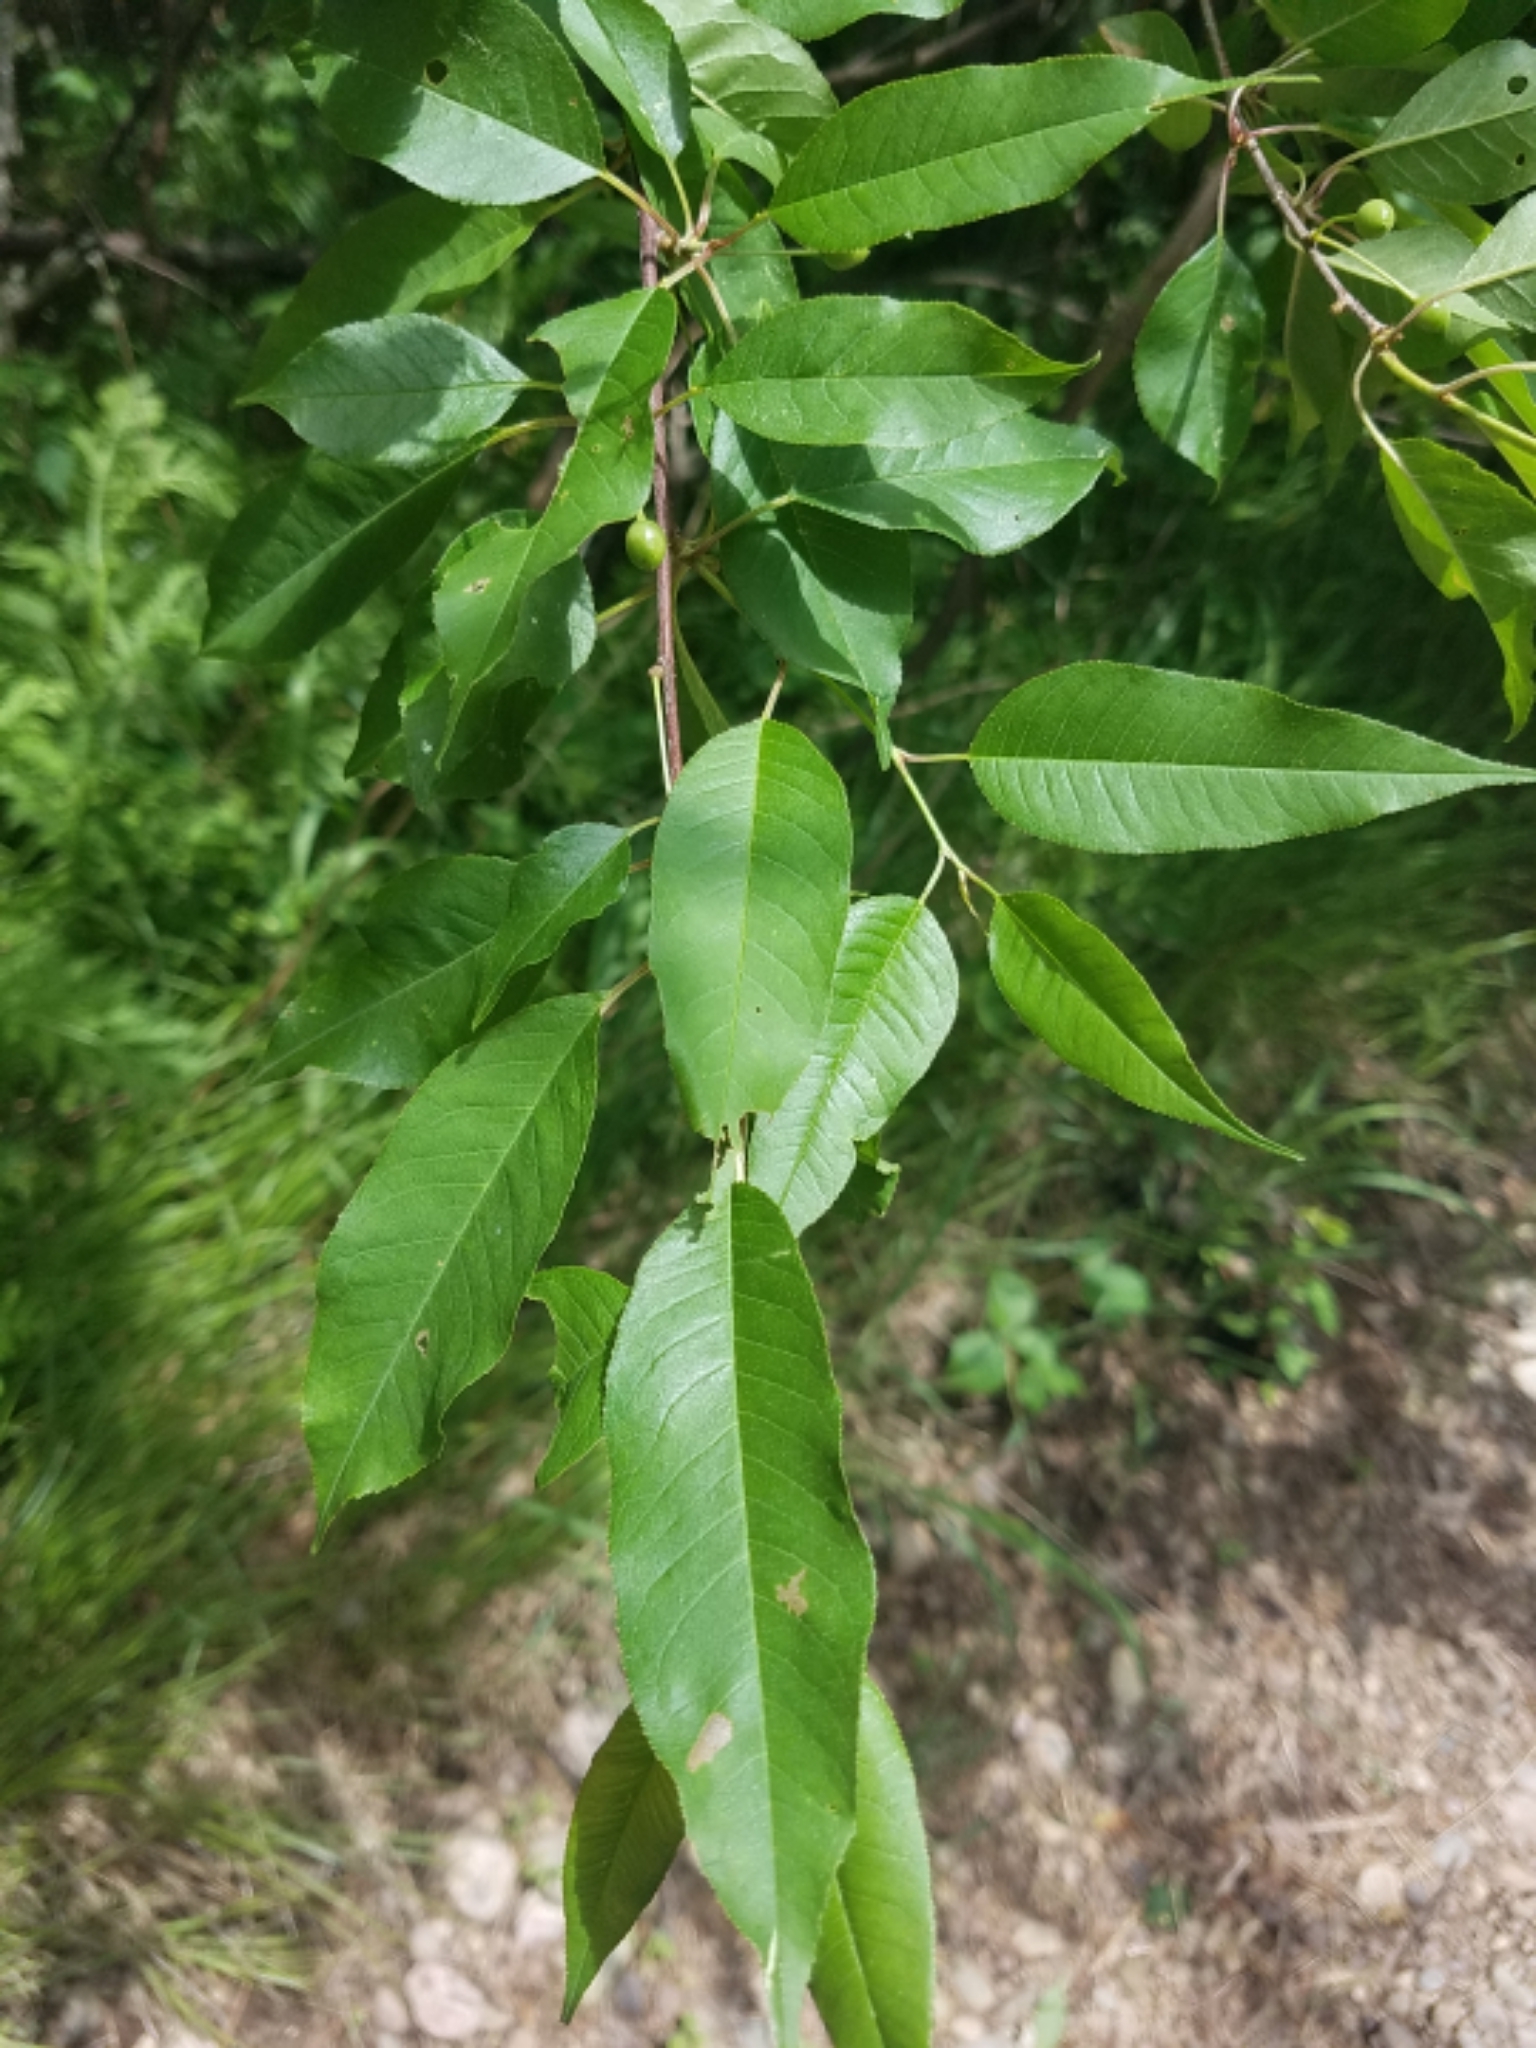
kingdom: Plantae
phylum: Tracheophyta
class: Magnoliopsida
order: Rosales
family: Rosaceae
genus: Prunus
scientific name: Prunus serotina
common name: Black cherry
